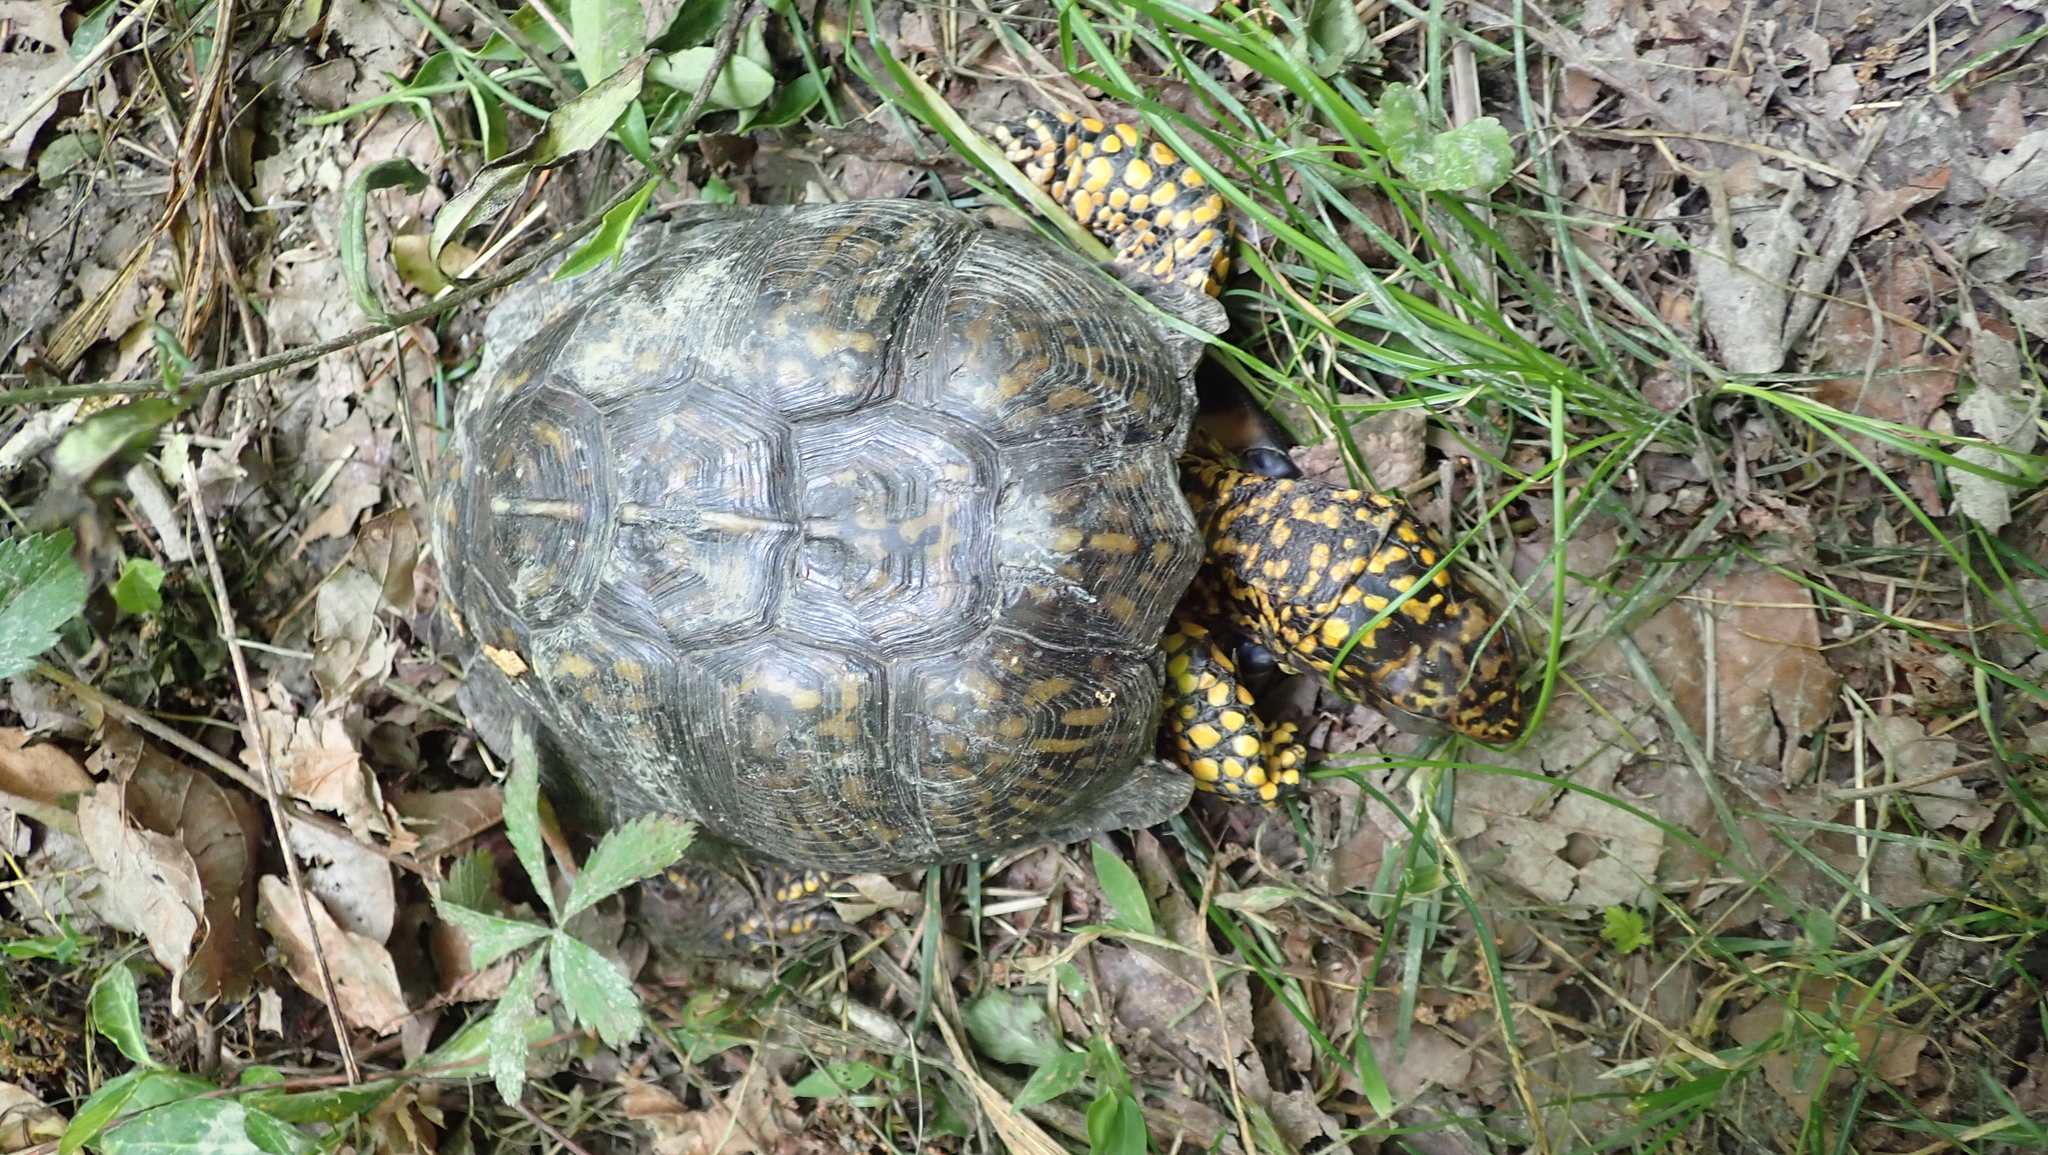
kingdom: Animalia
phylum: Chordata
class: Testudines
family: Emydidae
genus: Terrapene
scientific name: Terrapene carolina
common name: Common box turtle
